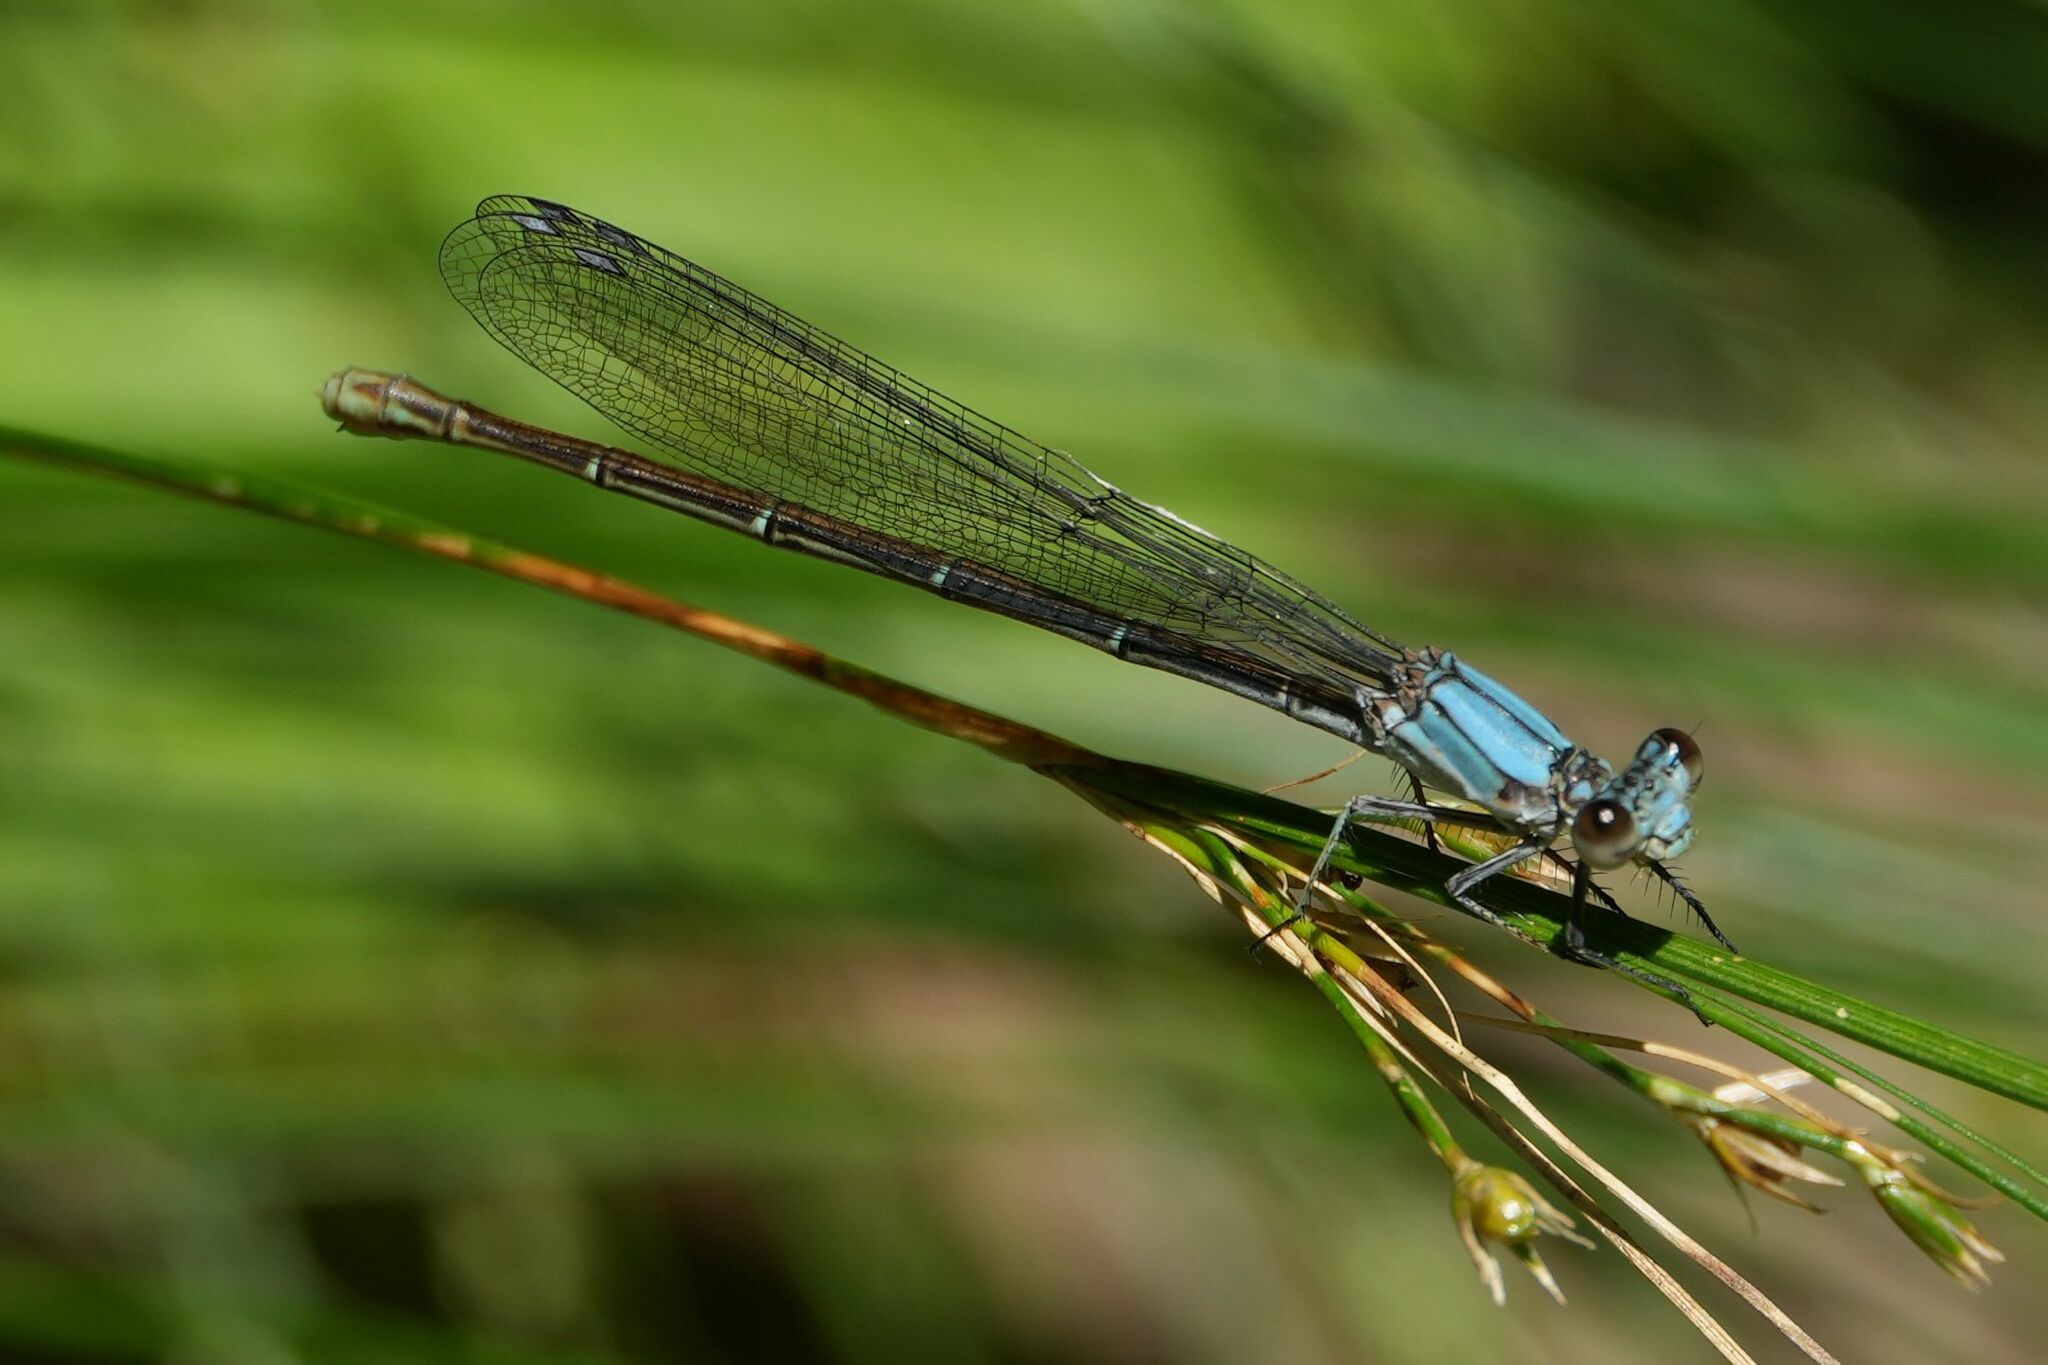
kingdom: Animalia
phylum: Arthropoda
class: Insecta
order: Odonata
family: Coenagrionidae
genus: Argia
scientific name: Argia moesta
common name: Powdered dancer
